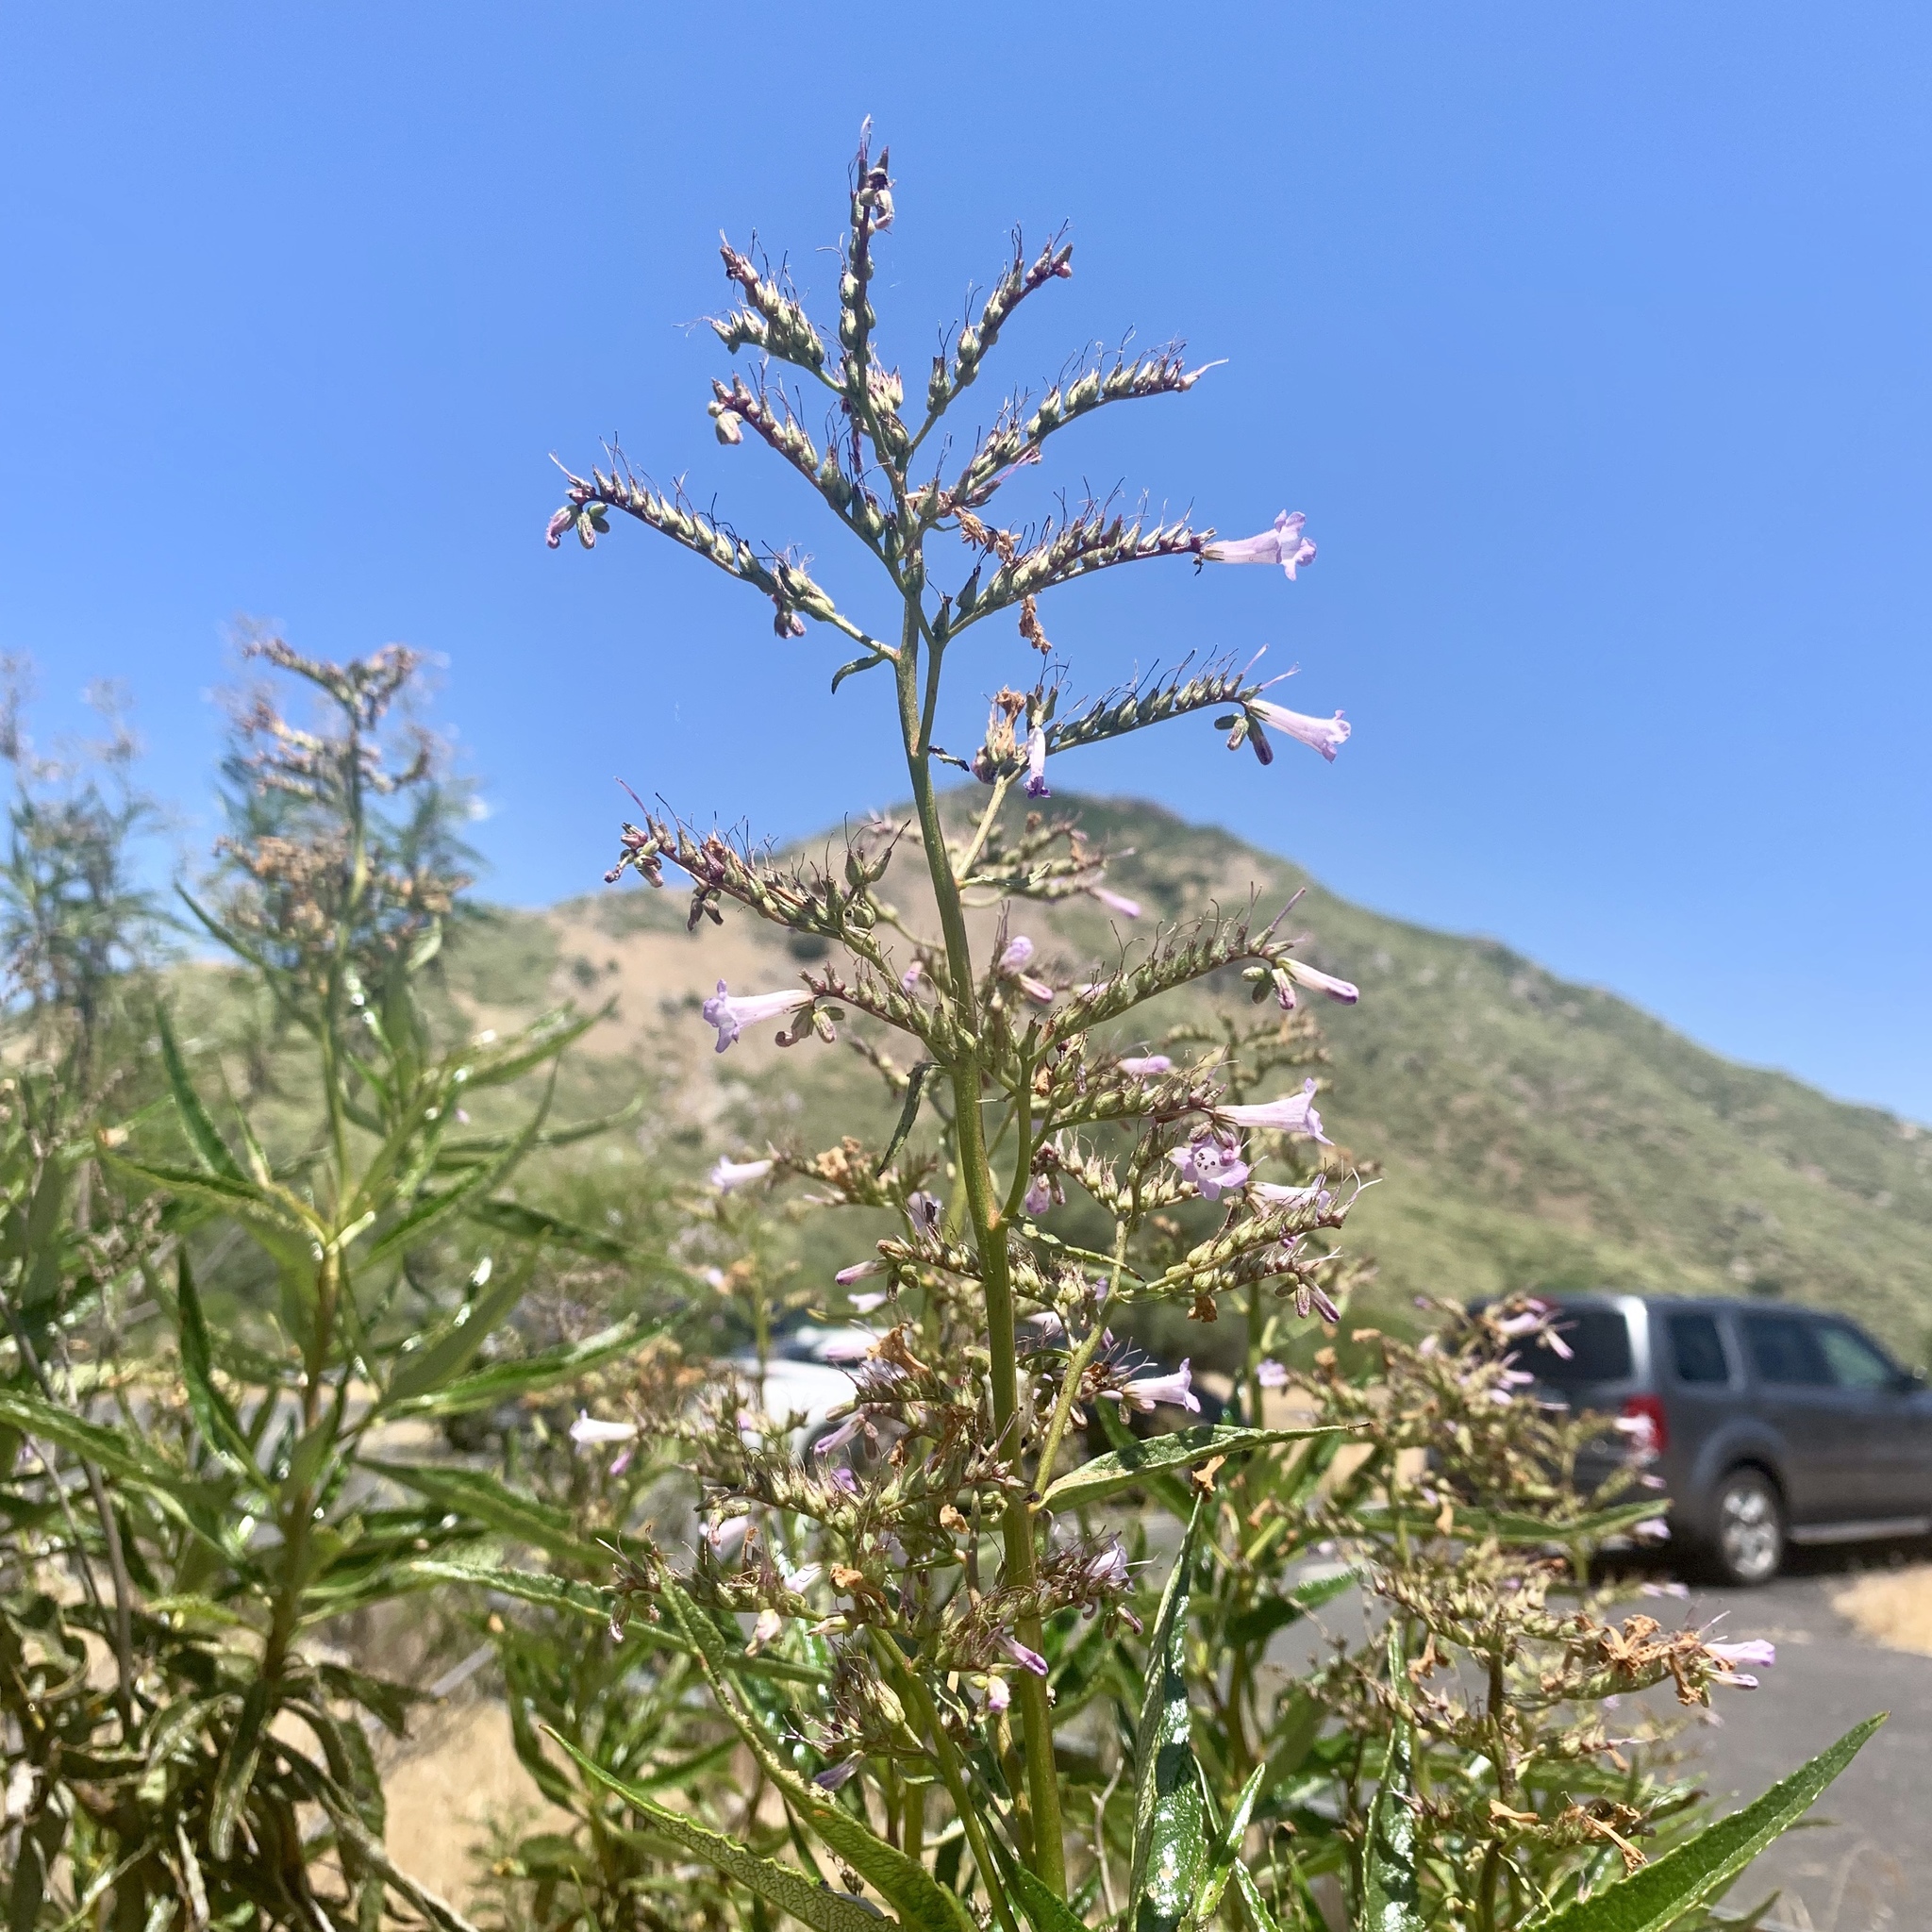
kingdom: Plantae
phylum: Tracheophyta
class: Magnoliopsida
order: Boraginales
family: Namaceae
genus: Eriodictyon
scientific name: Eriodictyon californicum
